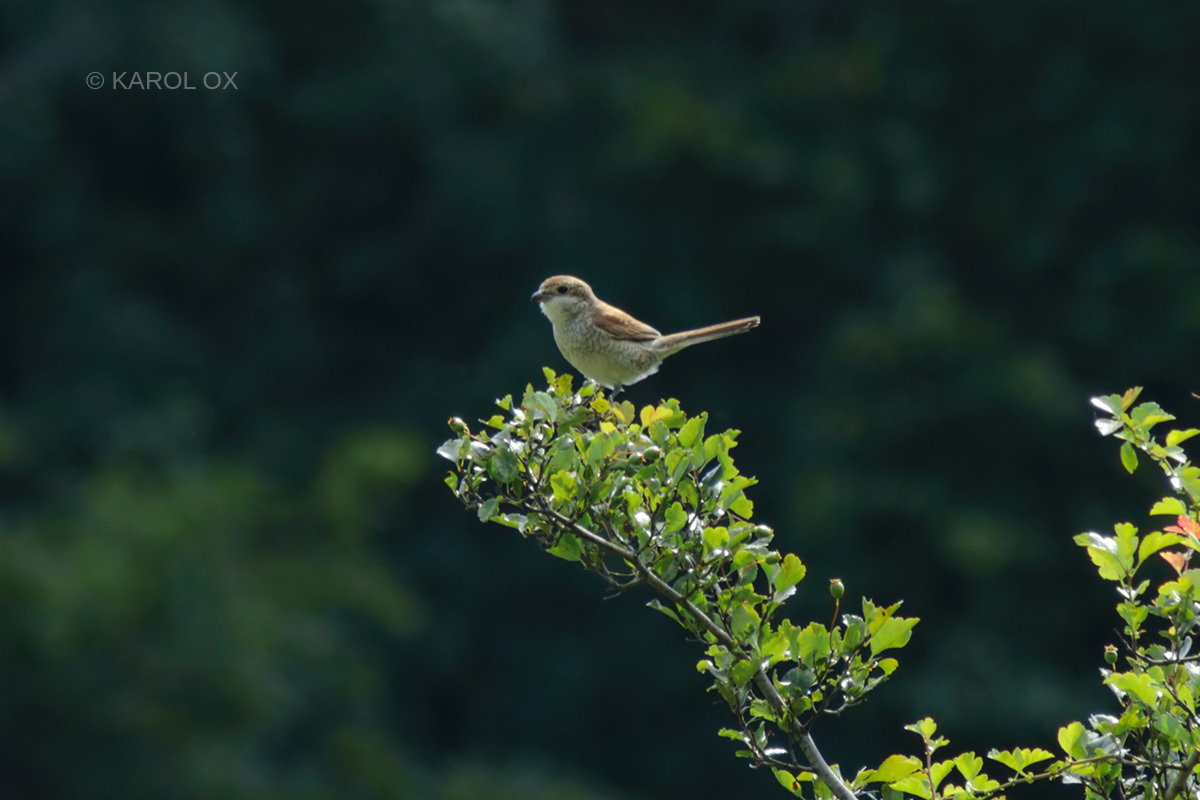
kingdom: Animalia
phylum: Chordata
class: Aves
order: Passeriformes
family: Laniidae
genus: Lanius
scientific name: Lanius collurio
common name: Red-backed shrike
